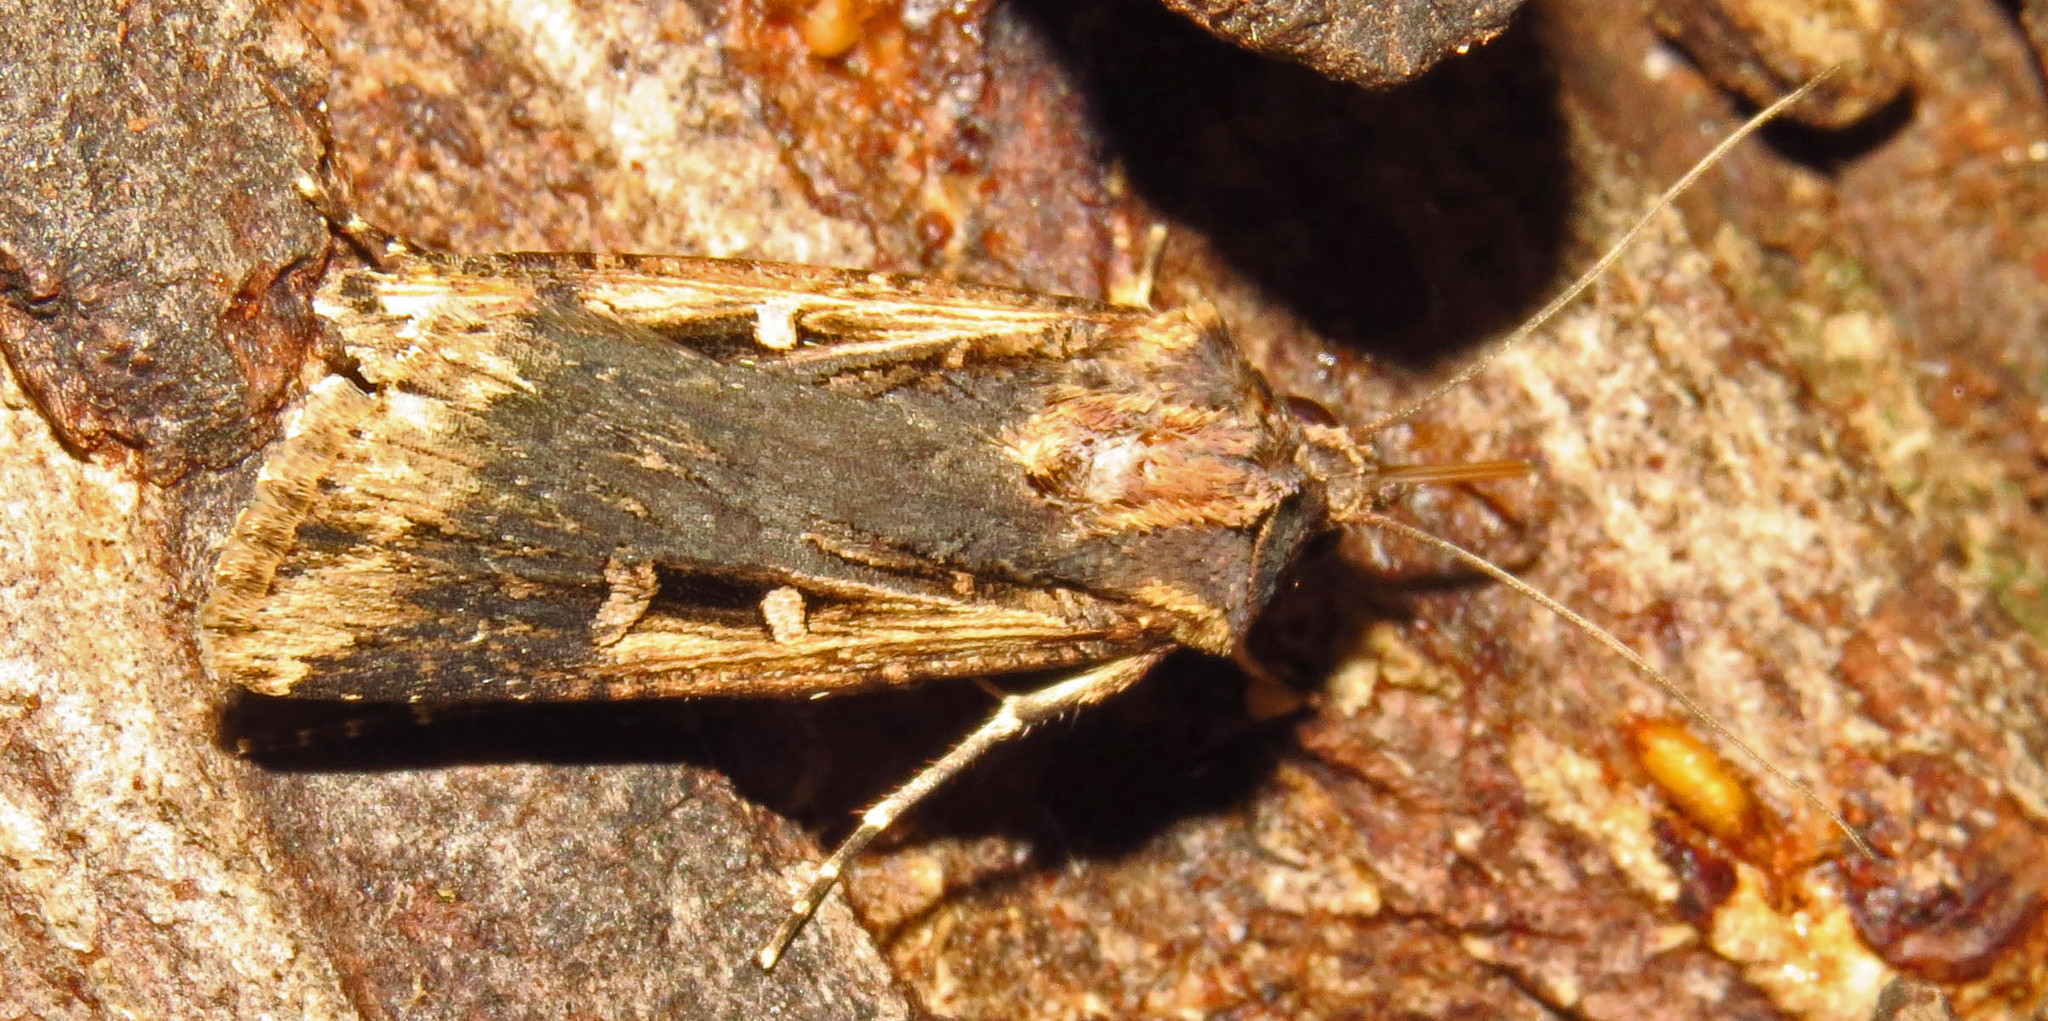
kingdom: Animalia
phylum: Arthropoda
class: Insecta
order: Lepidoptera
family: Noctuidae
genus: Feltia
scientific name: Feltia subterranea
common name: Granulate cutworm
